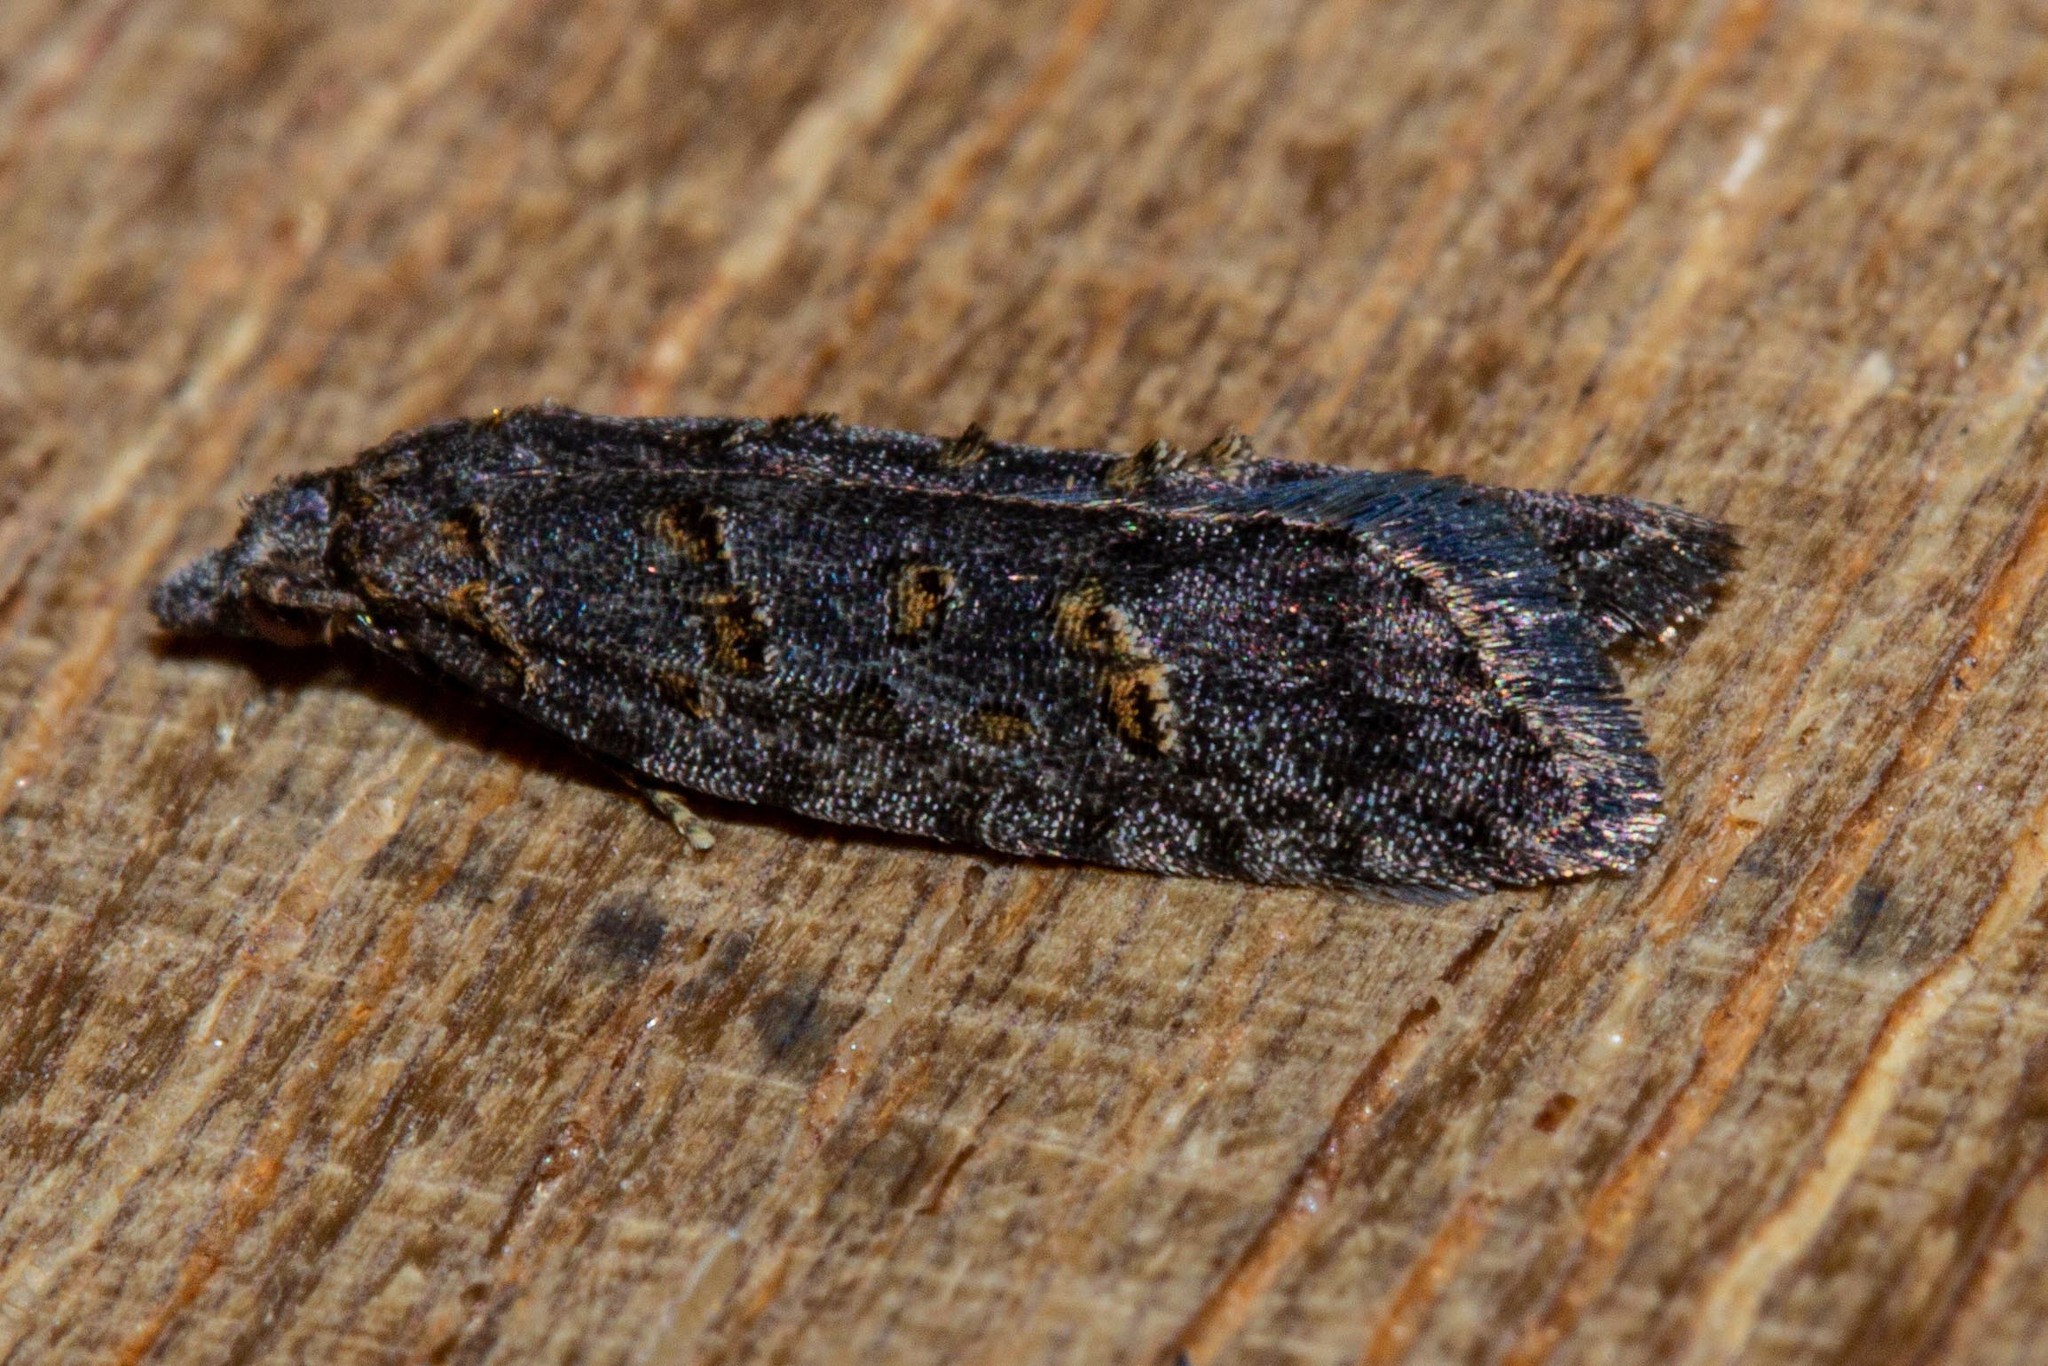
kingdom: Animalia
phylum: Arthropoda
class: Insecta
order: Lepidoptera
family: Carposinidae
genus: Carposina
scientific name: Carposina
